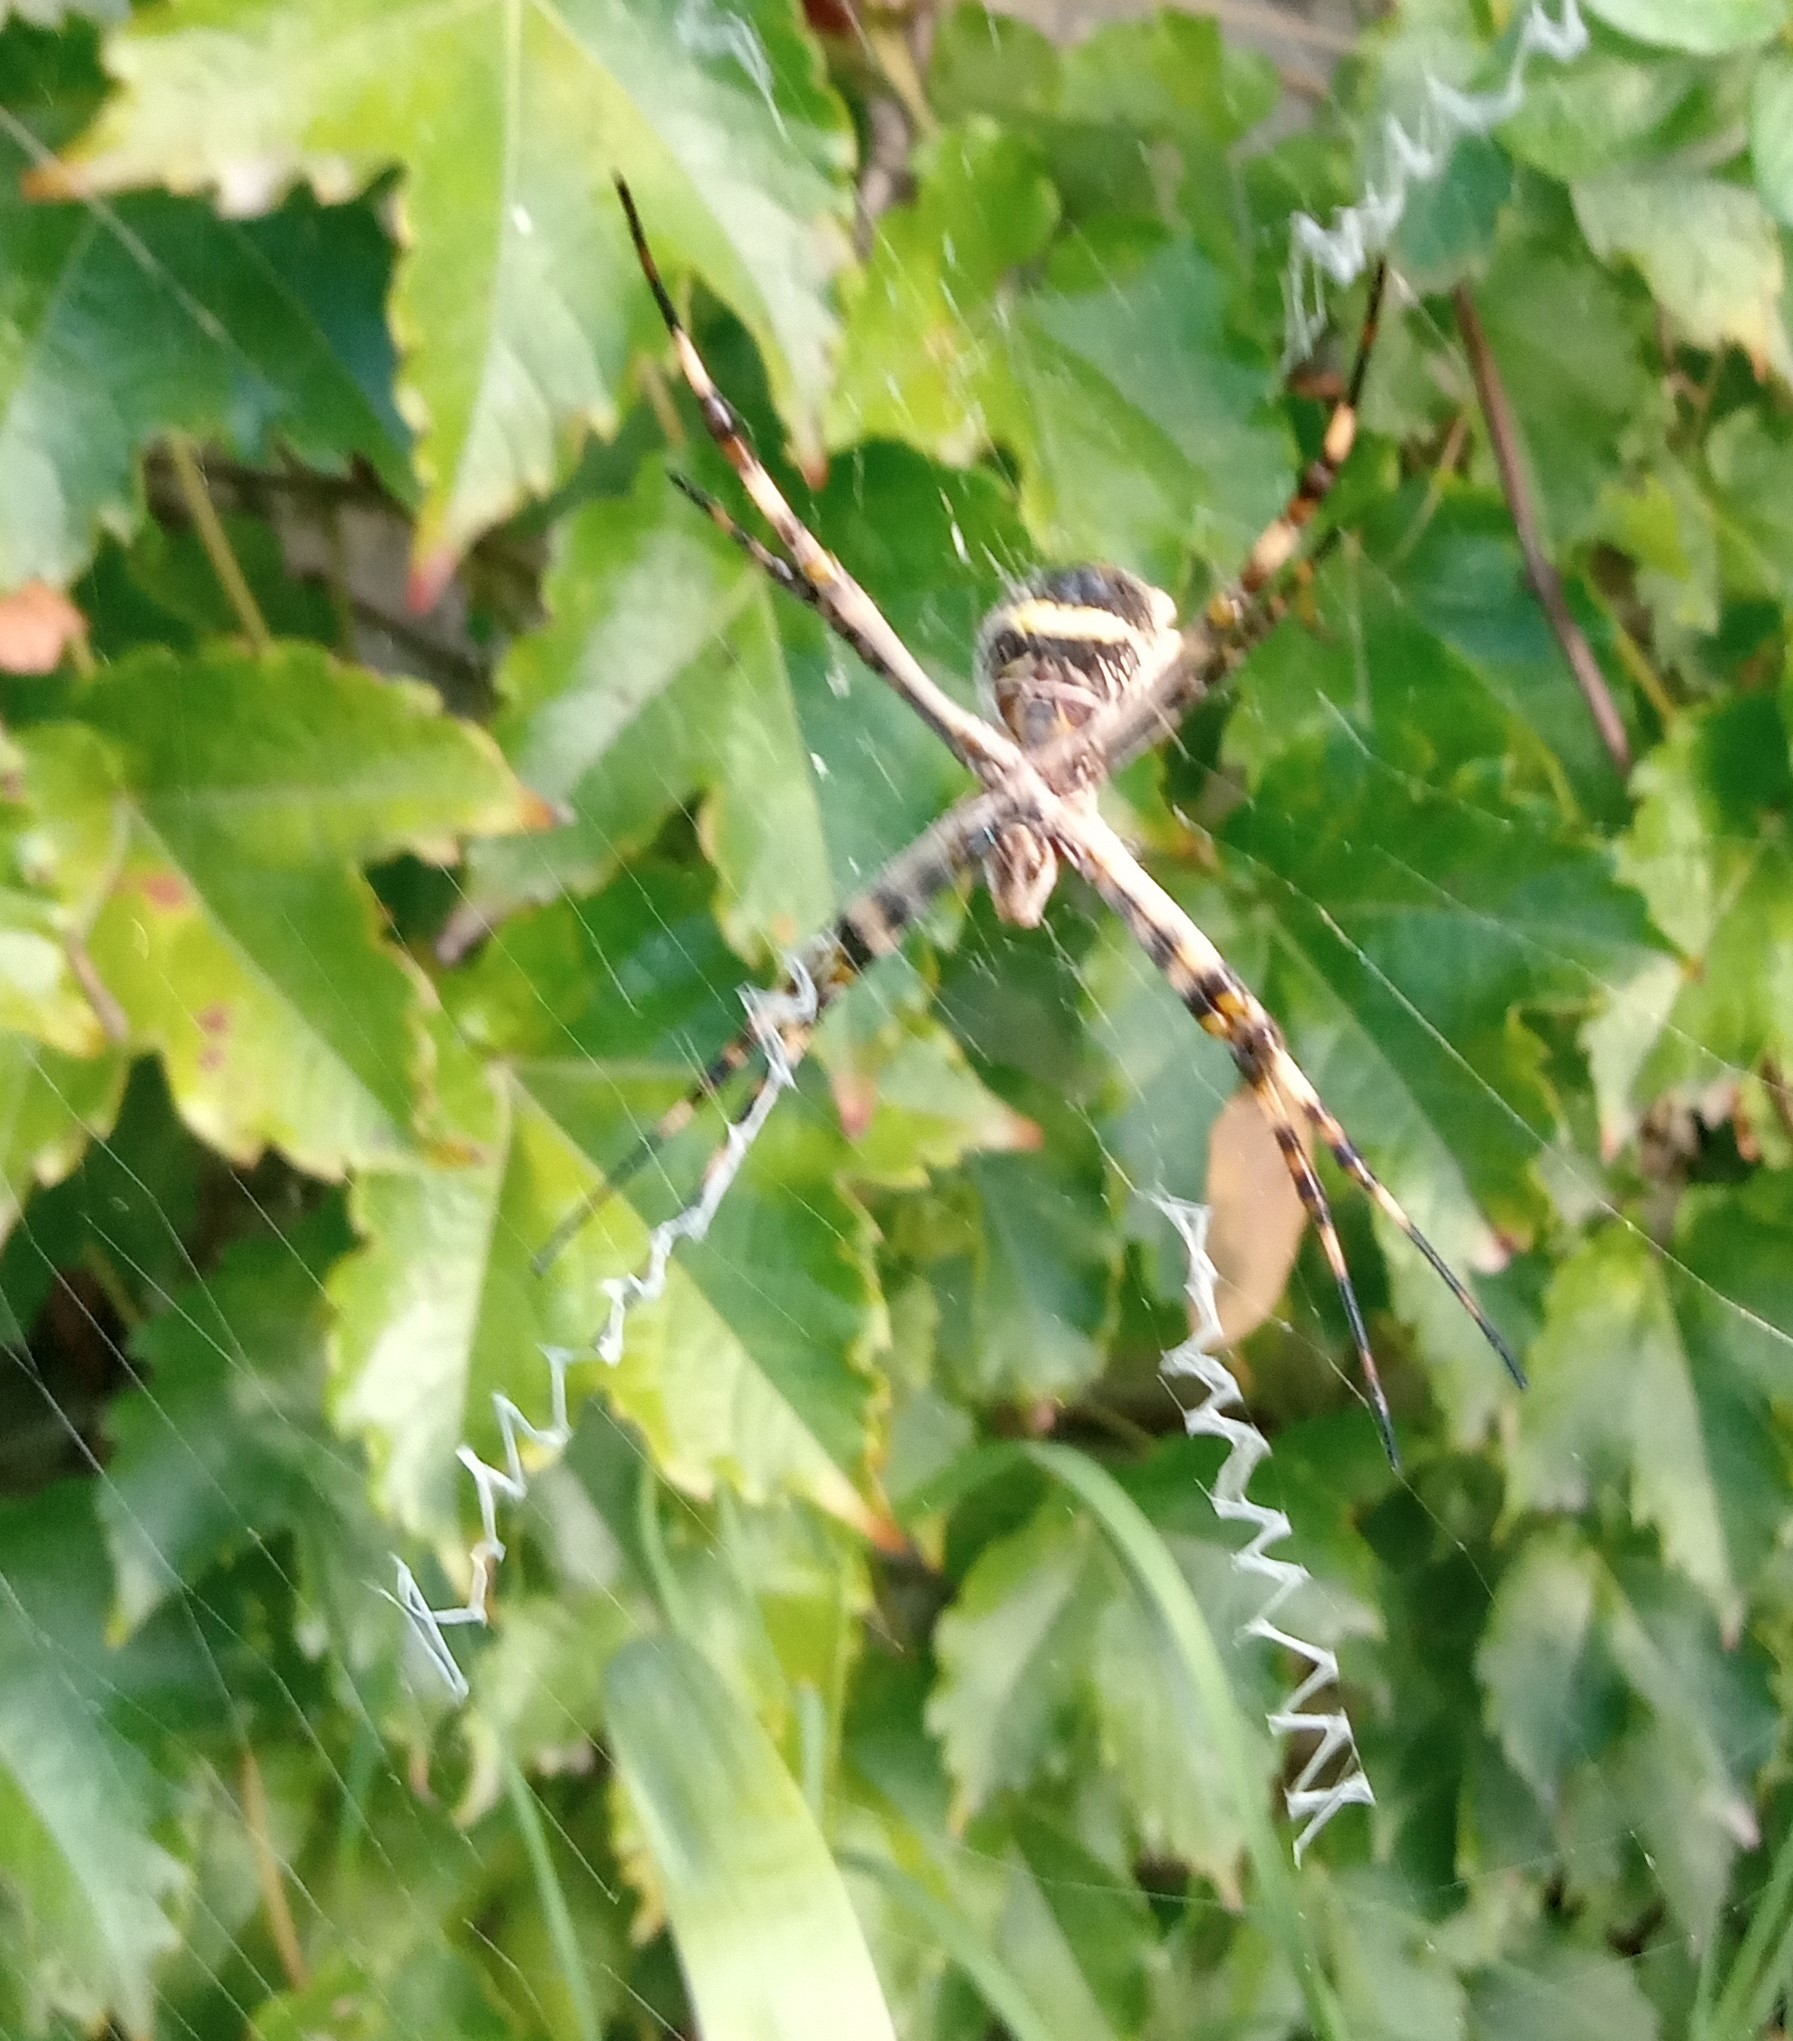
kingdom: Animalia
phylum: Arthropoda
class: Arachnida
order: Araneae
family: Araneidae
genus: Argiope
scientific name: Argiope argentata
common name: Orb weavers
